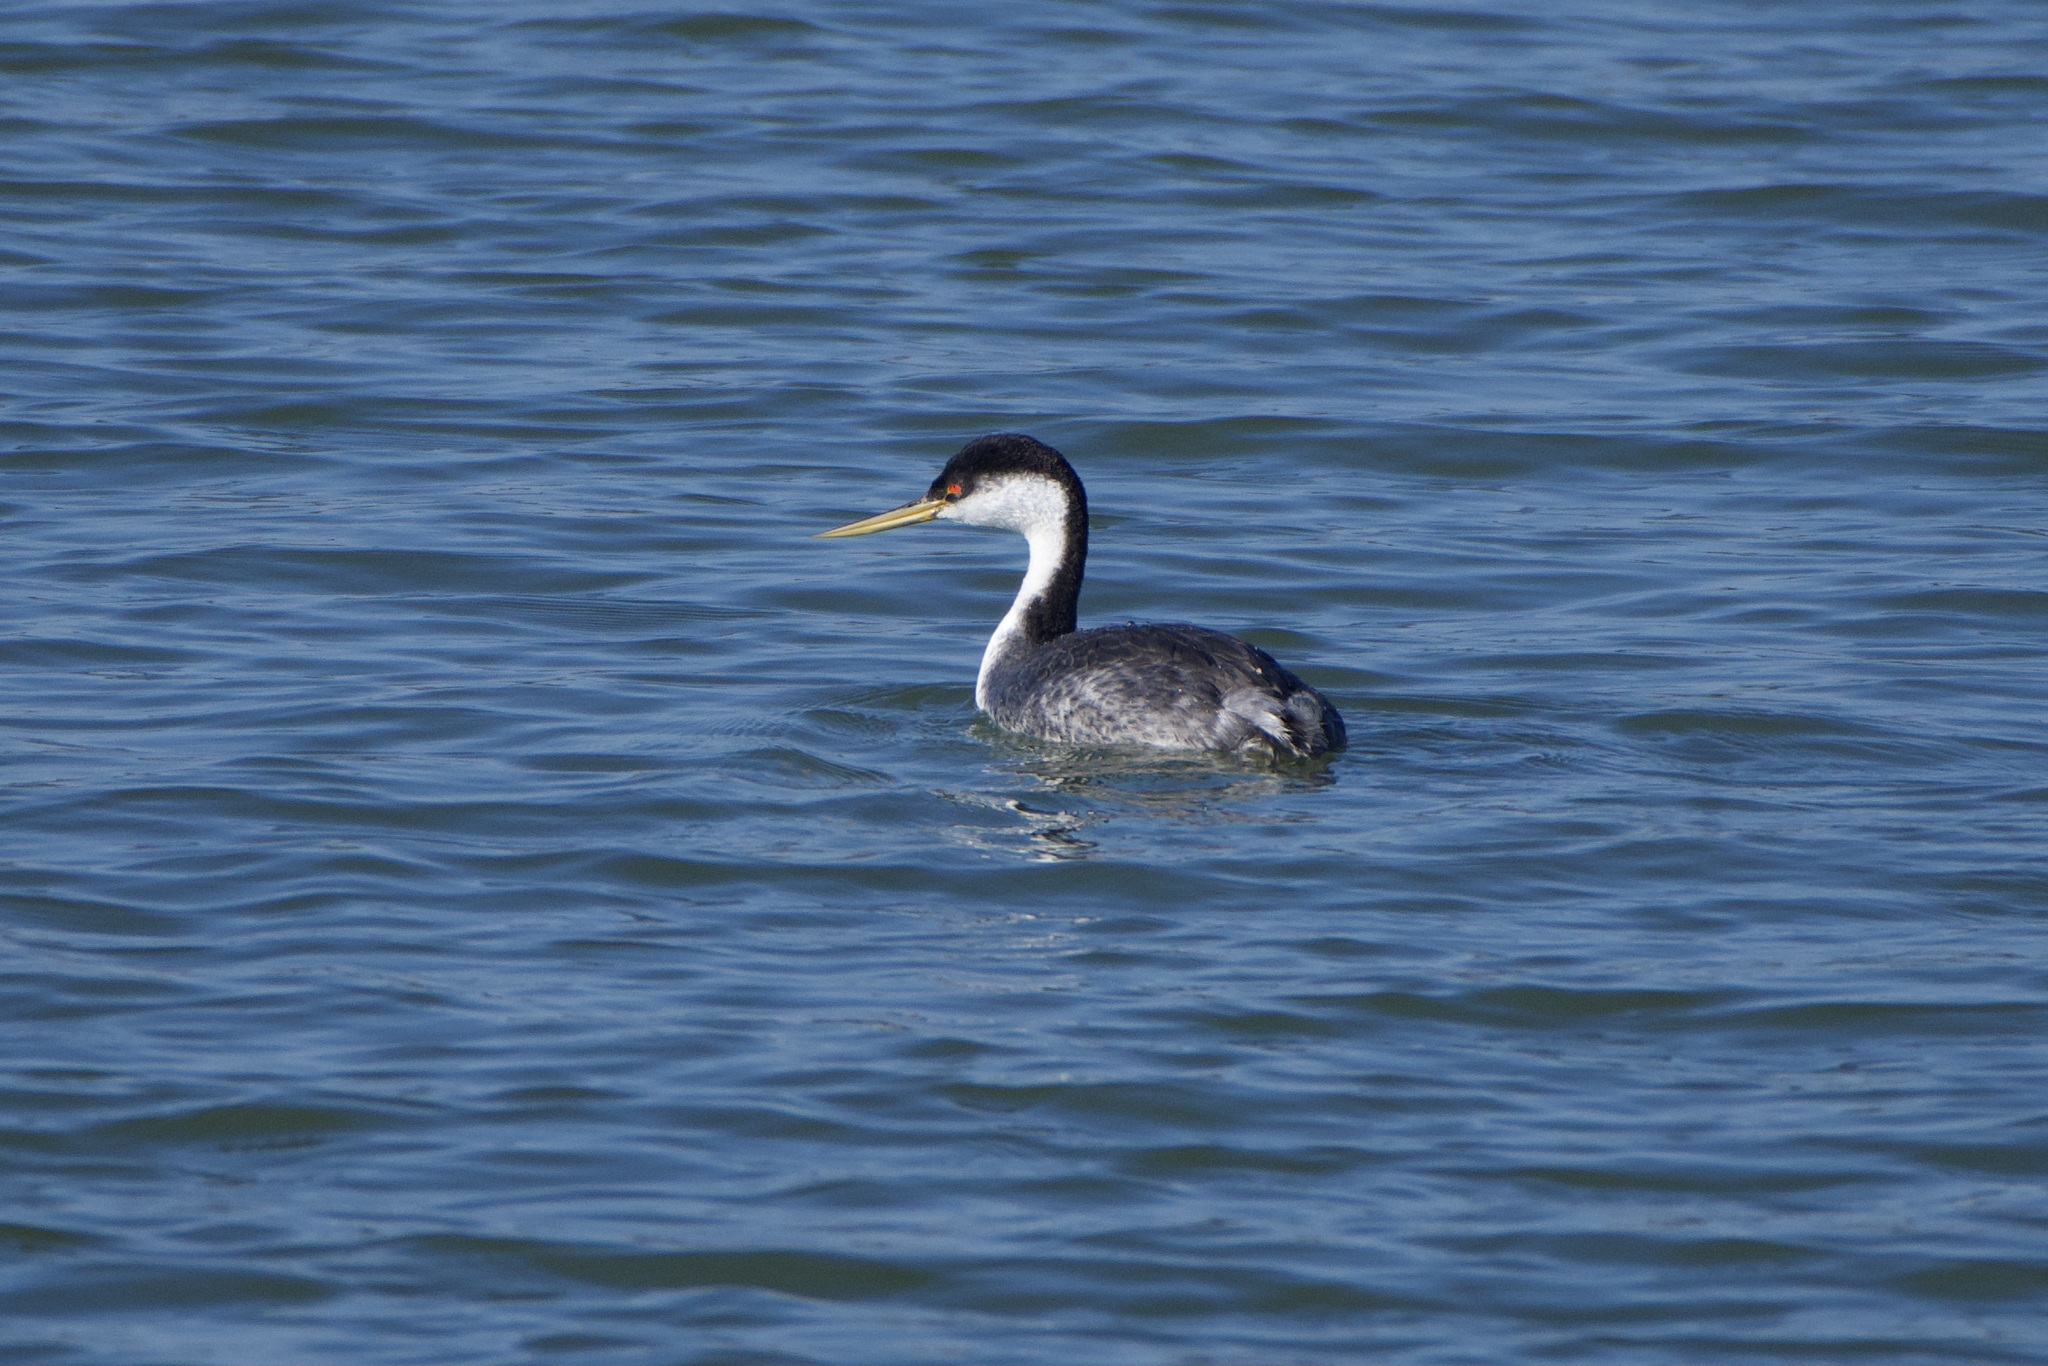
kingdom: Animalia
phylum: Chordata
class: Aves
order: Podicipediformes
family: Podicipedidae
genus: Aechmophorus
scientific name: Aechmophorus occidentalis
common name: Western grebe
